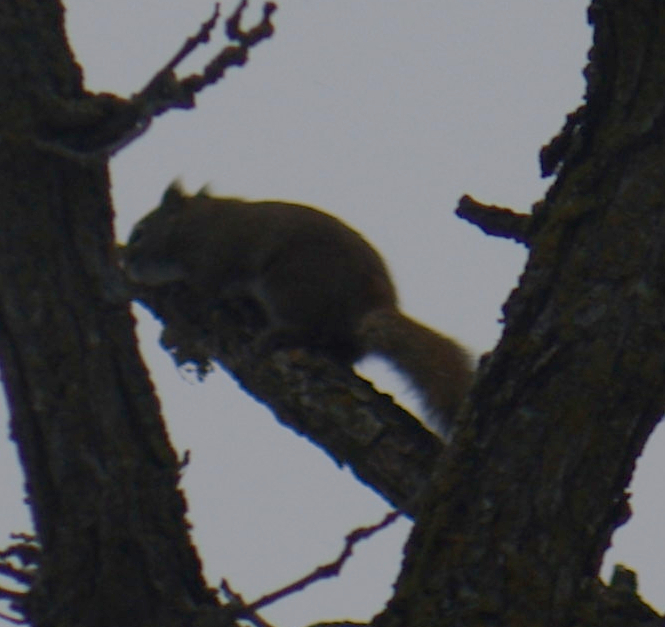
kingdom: Animalia
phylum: Chordata
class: Mammalia
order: Rodentia
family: Sciuridae
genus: Tamiasciurus
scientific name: Tamiasciurus hudsonicus
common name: Red squirrel
